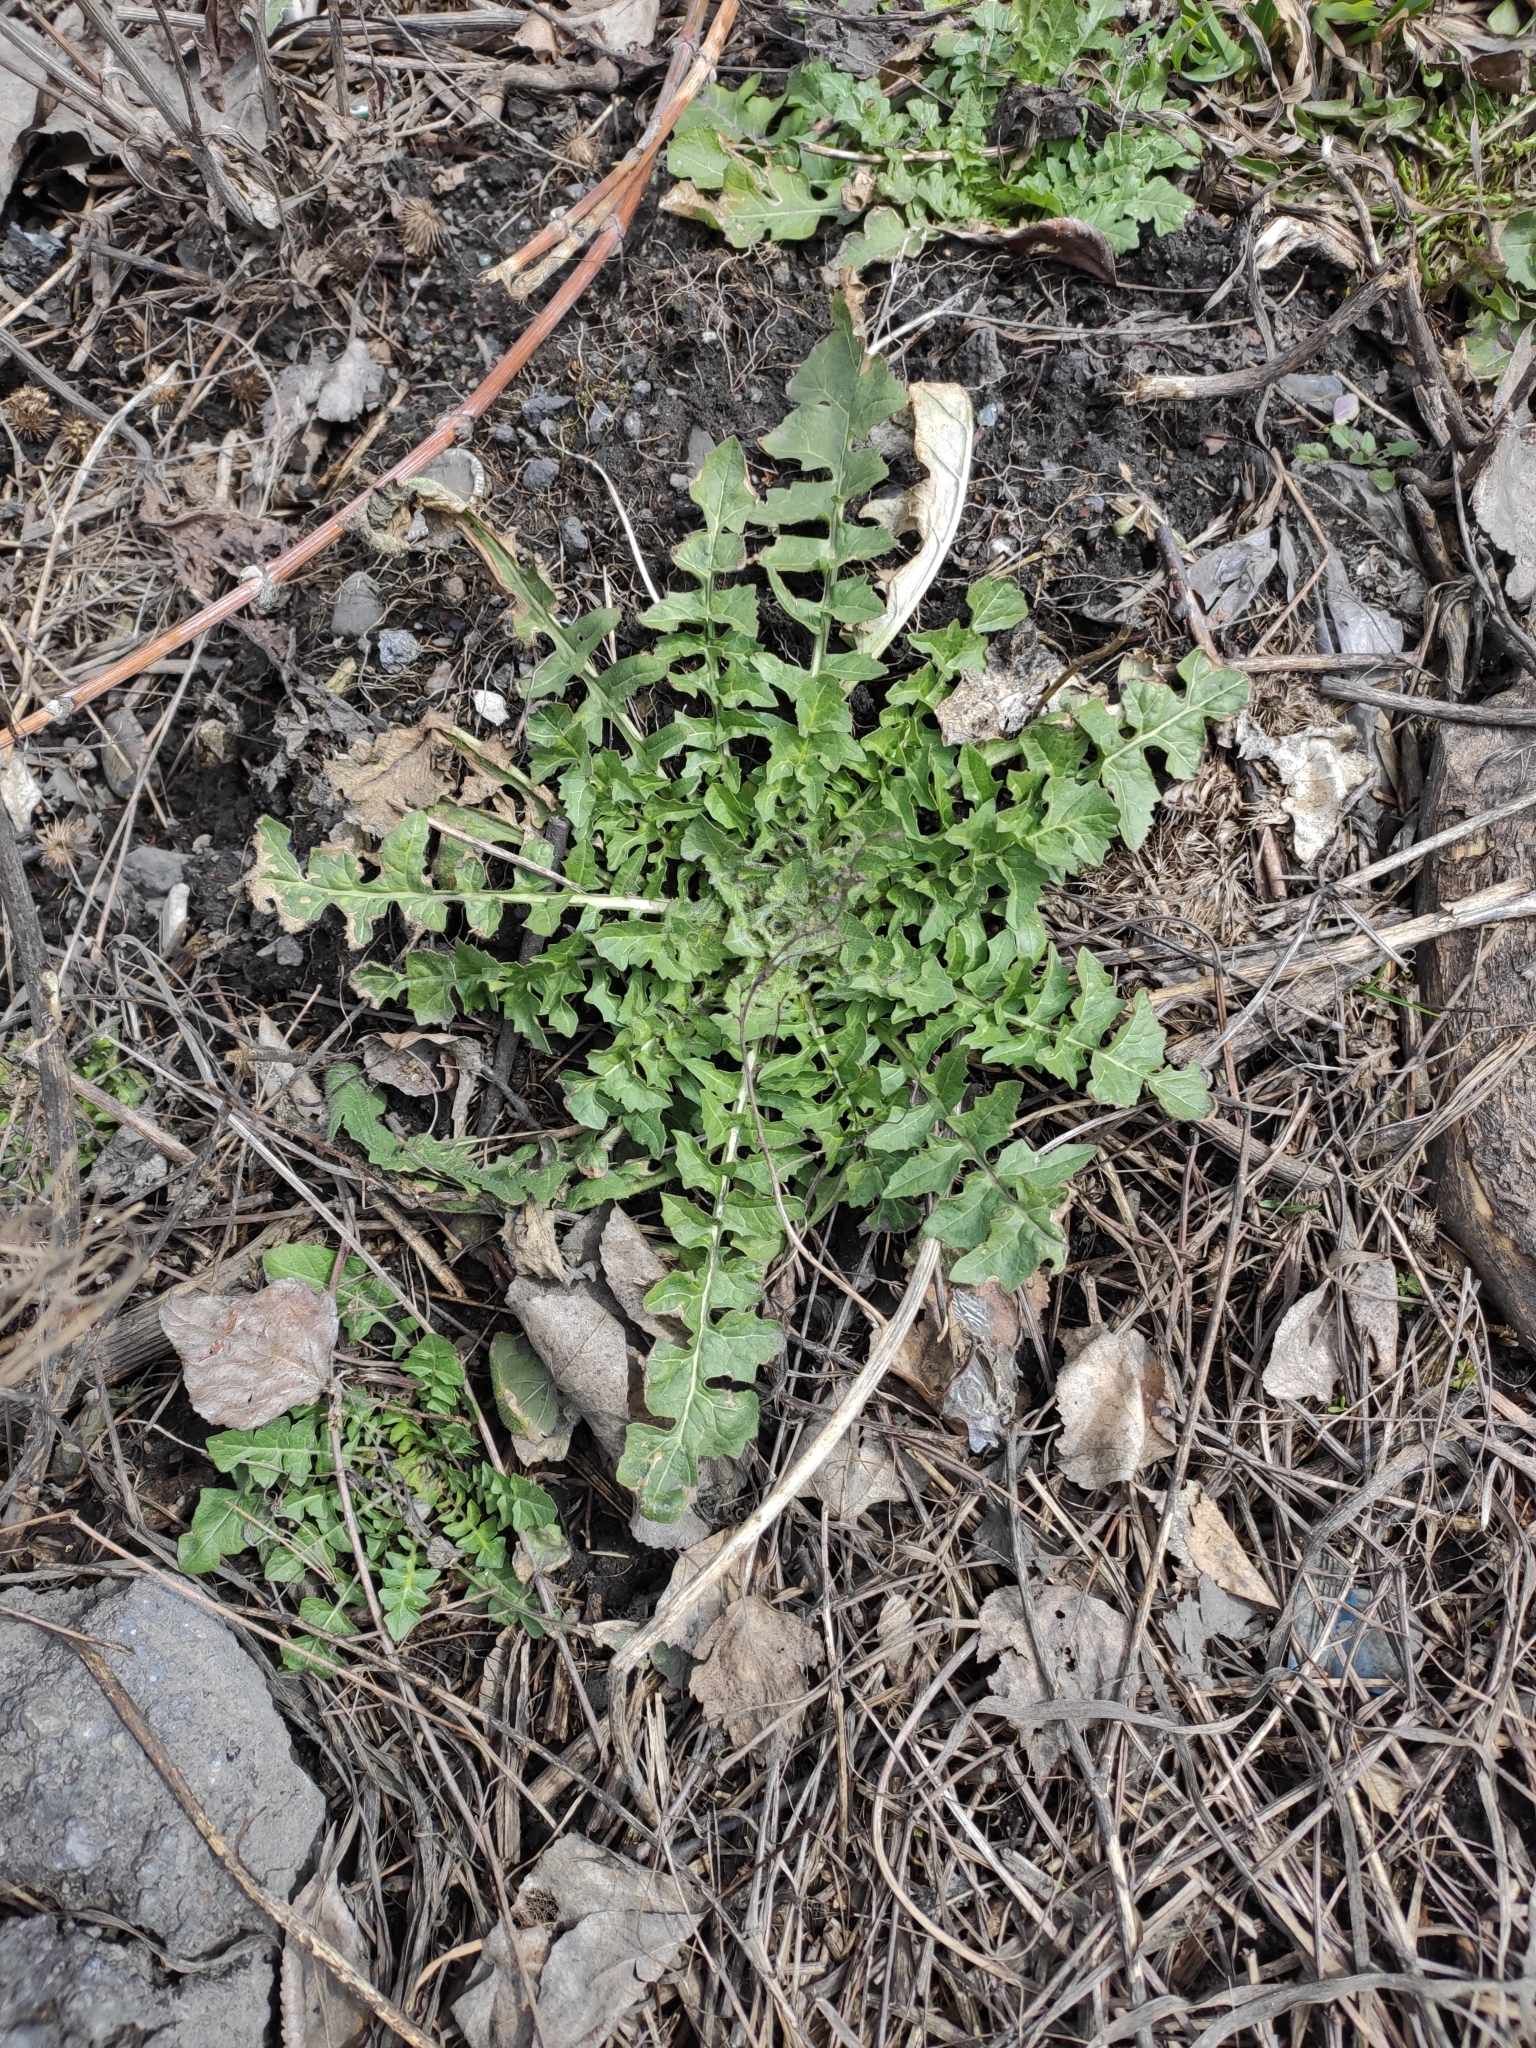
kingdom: Plantae
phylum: Tracheophyta
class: Magnoliopsida
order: Brassicales
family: Brassicaceae
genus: Sisymbrium
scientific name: Sisymbrium loeselii
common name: False london-rocket
